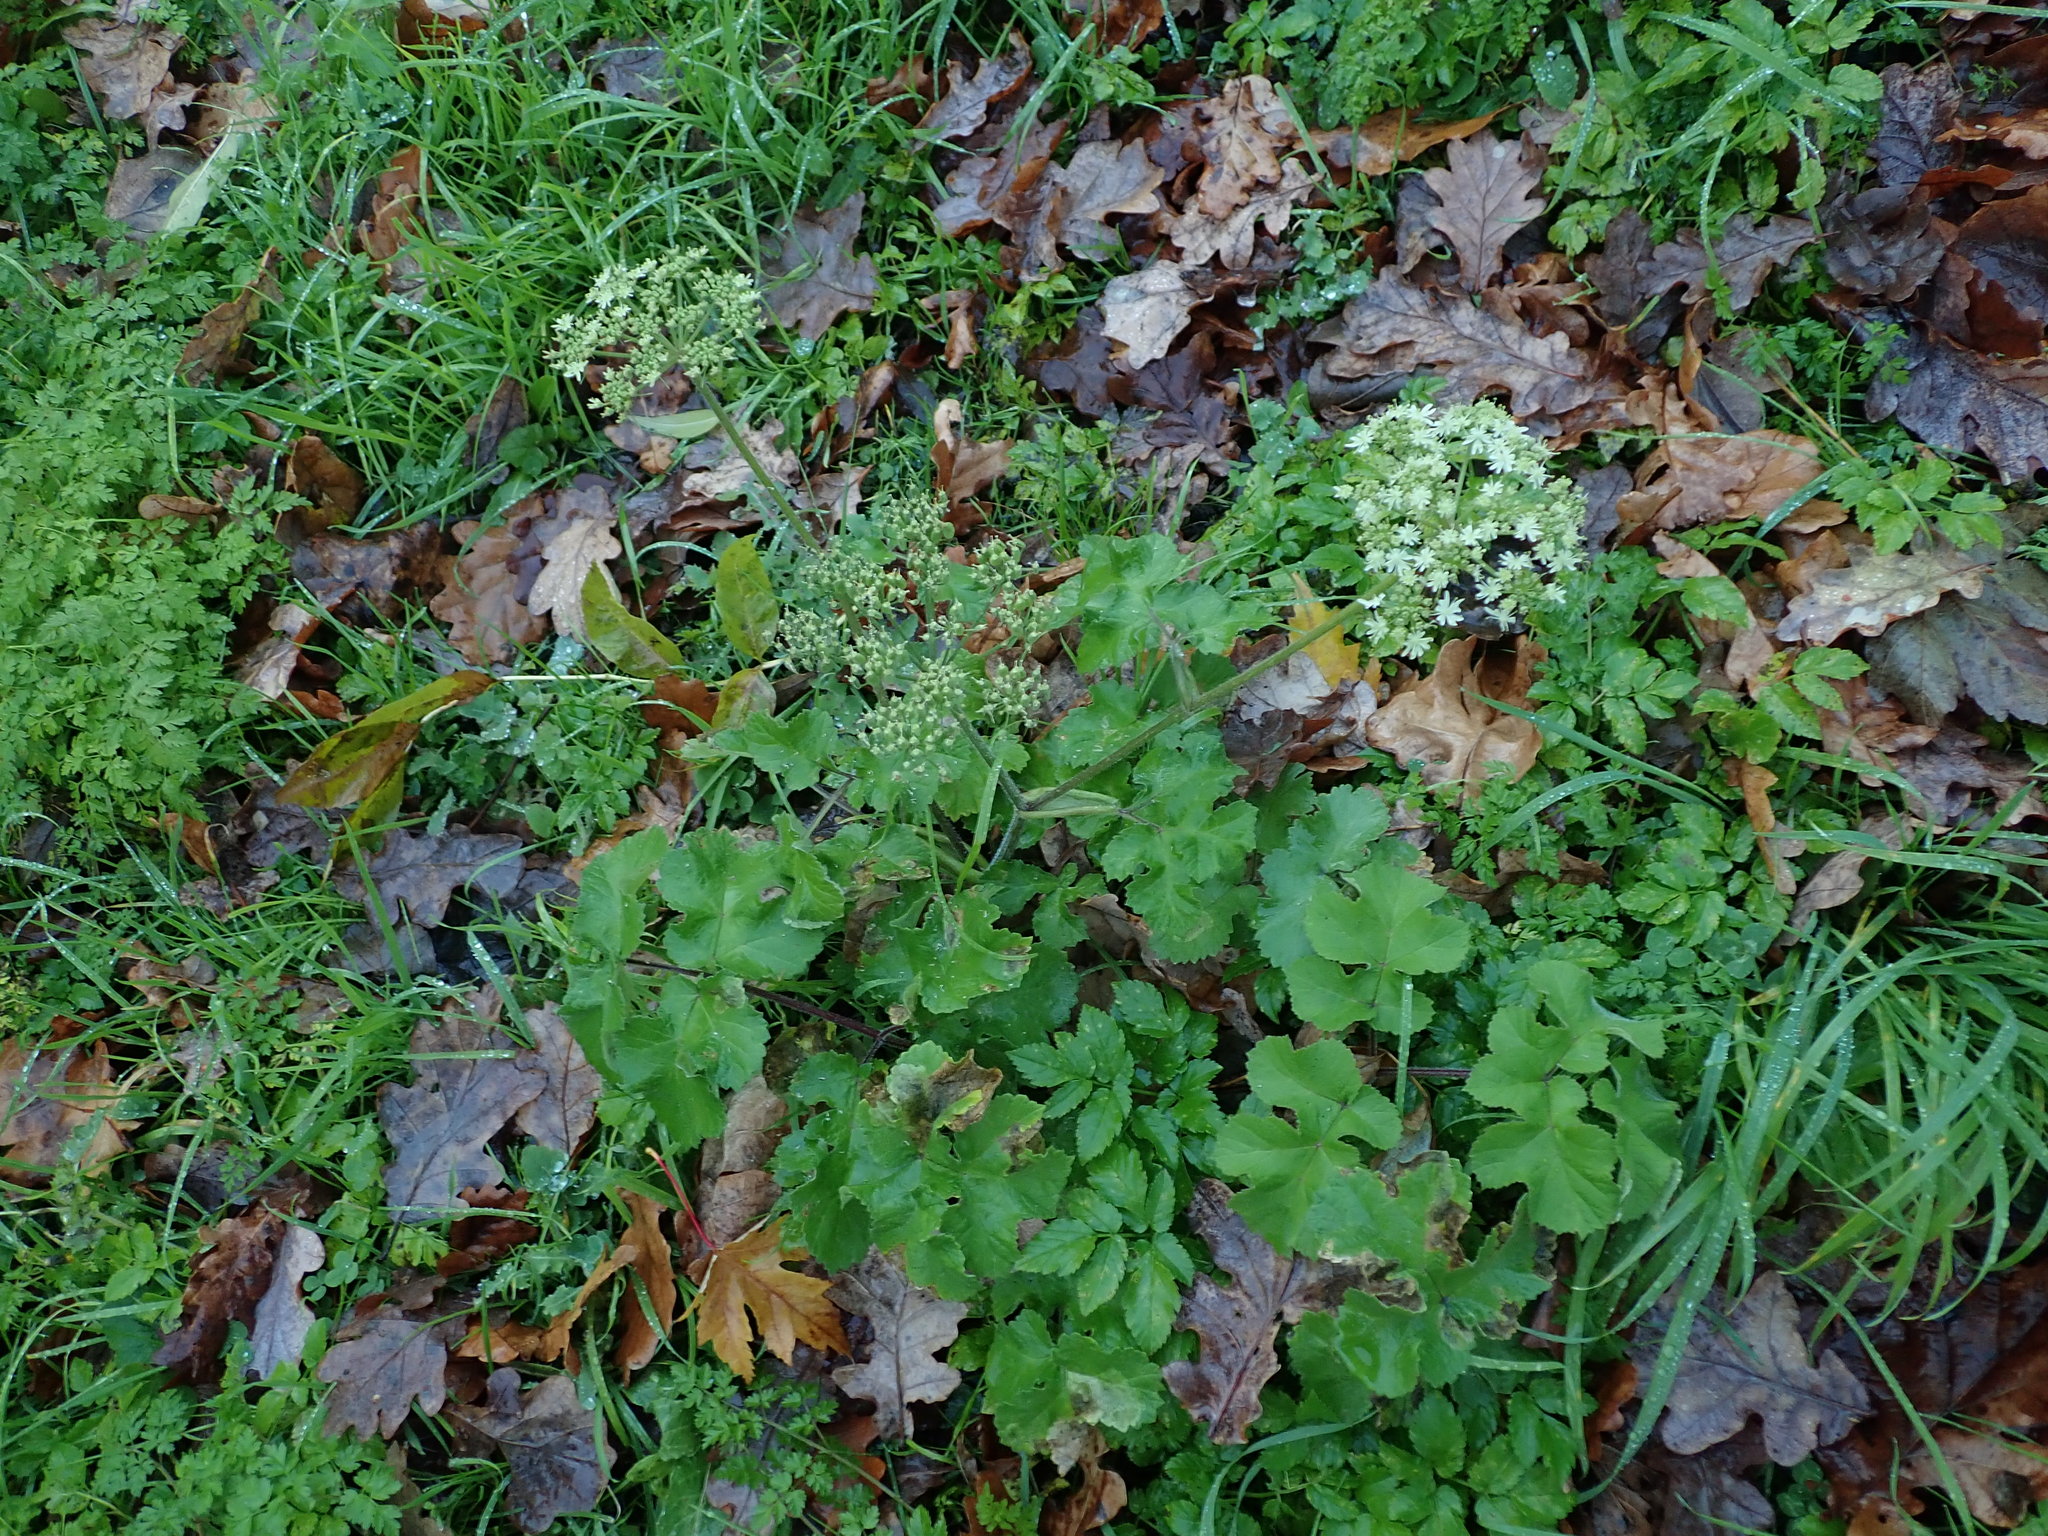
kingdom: Plantae
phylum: Tracheophyta
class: Magnoliopsida
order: Apiales
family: Apiaceae
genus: Heracleum
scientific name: Heracleum sphondylium
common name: Hogweed
